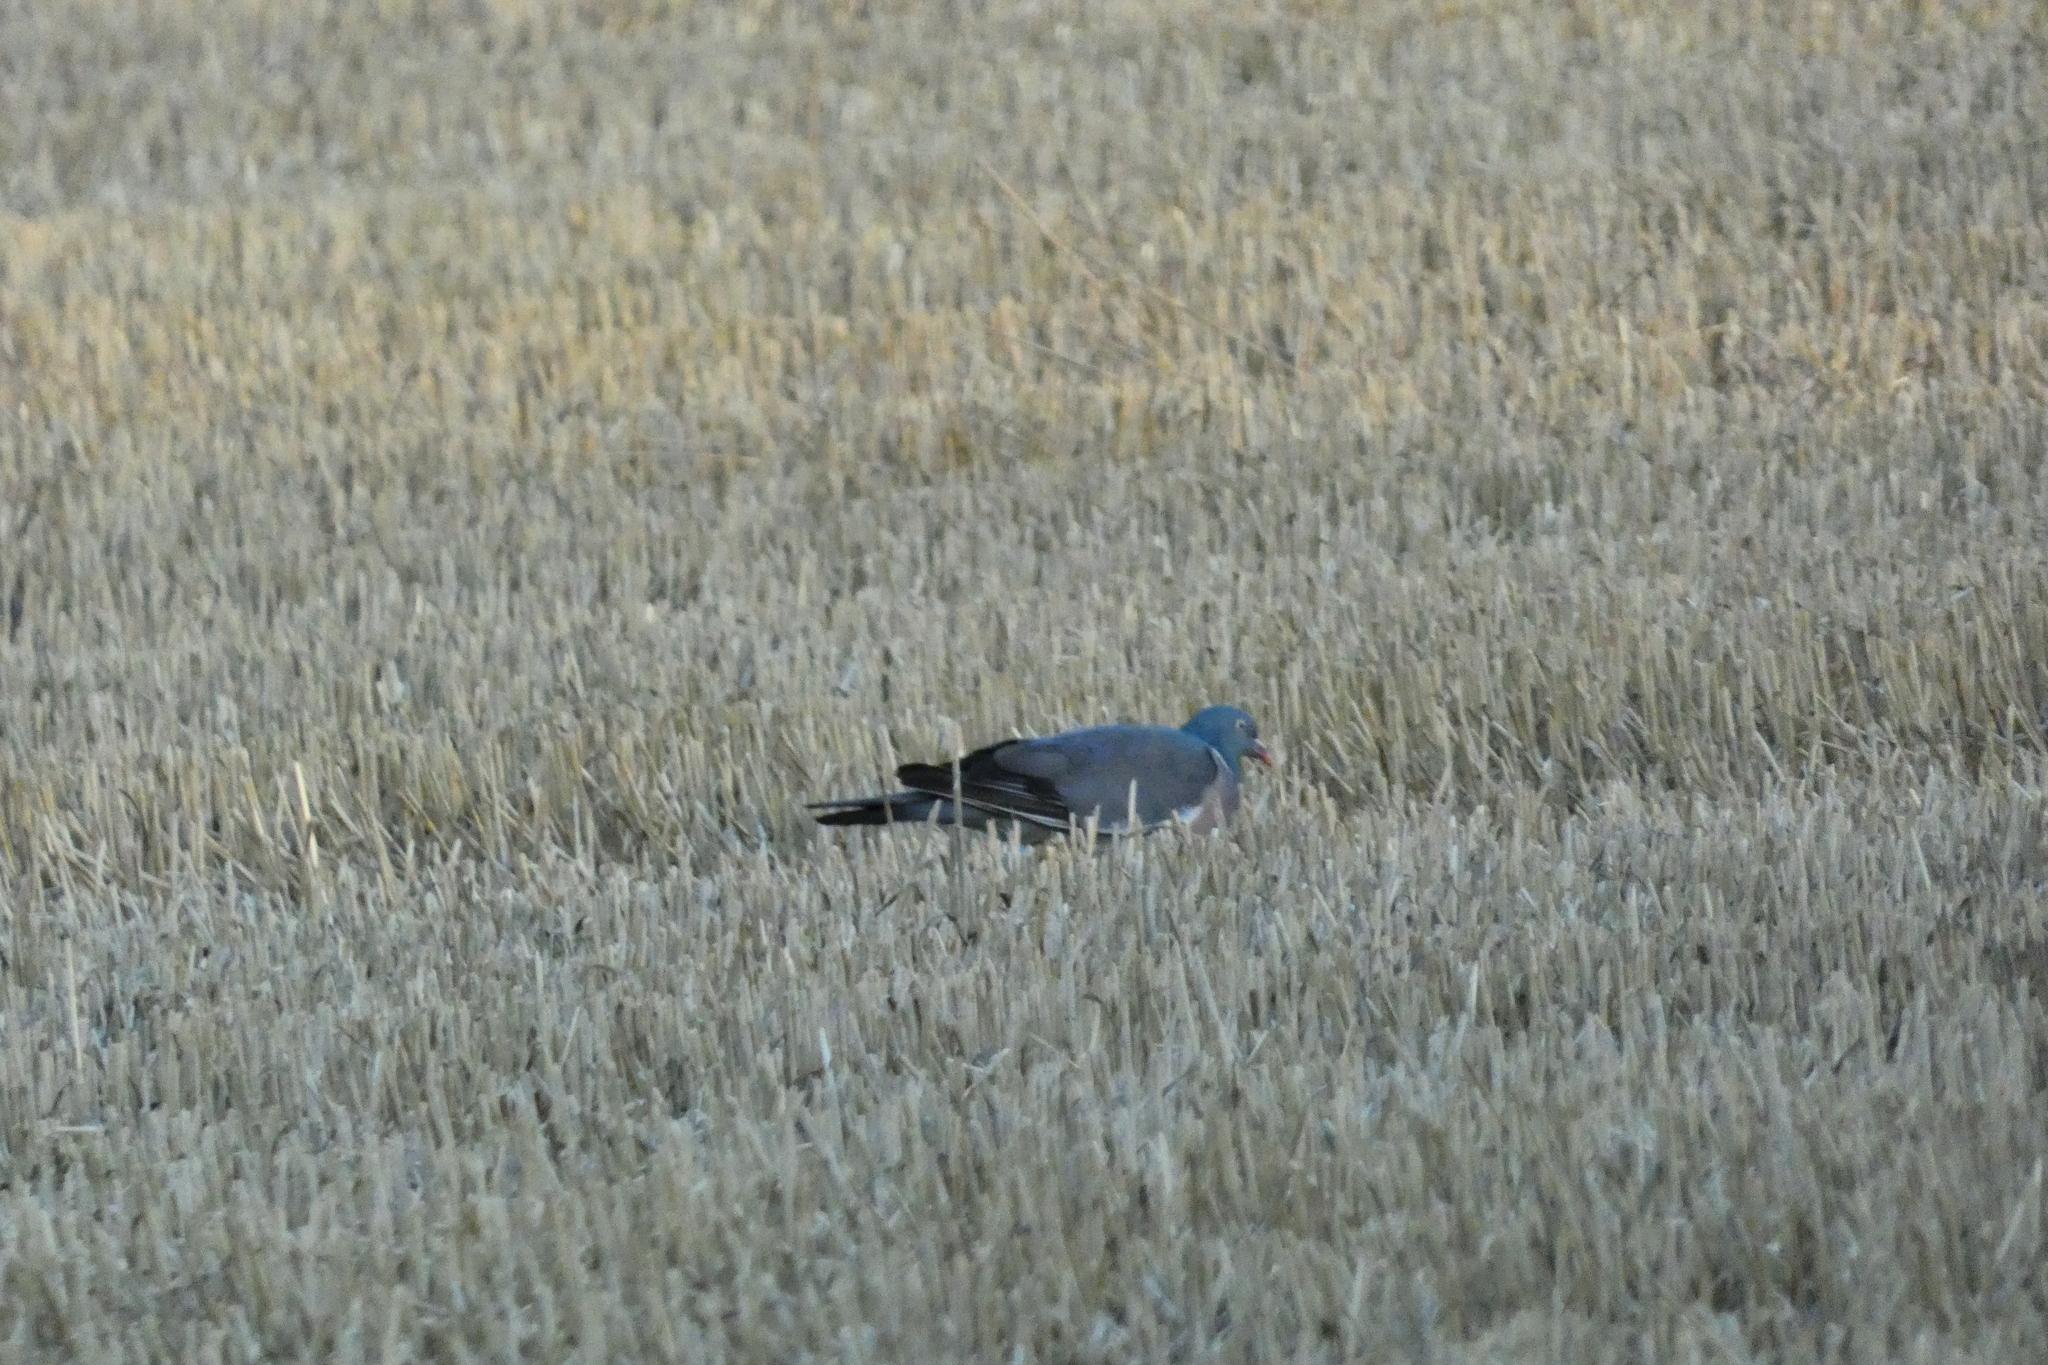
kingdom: Animalia
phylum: Chordata
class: Aves
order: Columbiformes
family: Columbidae
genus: Columba
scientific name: Columba palumbus
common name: Common wood pigeon
